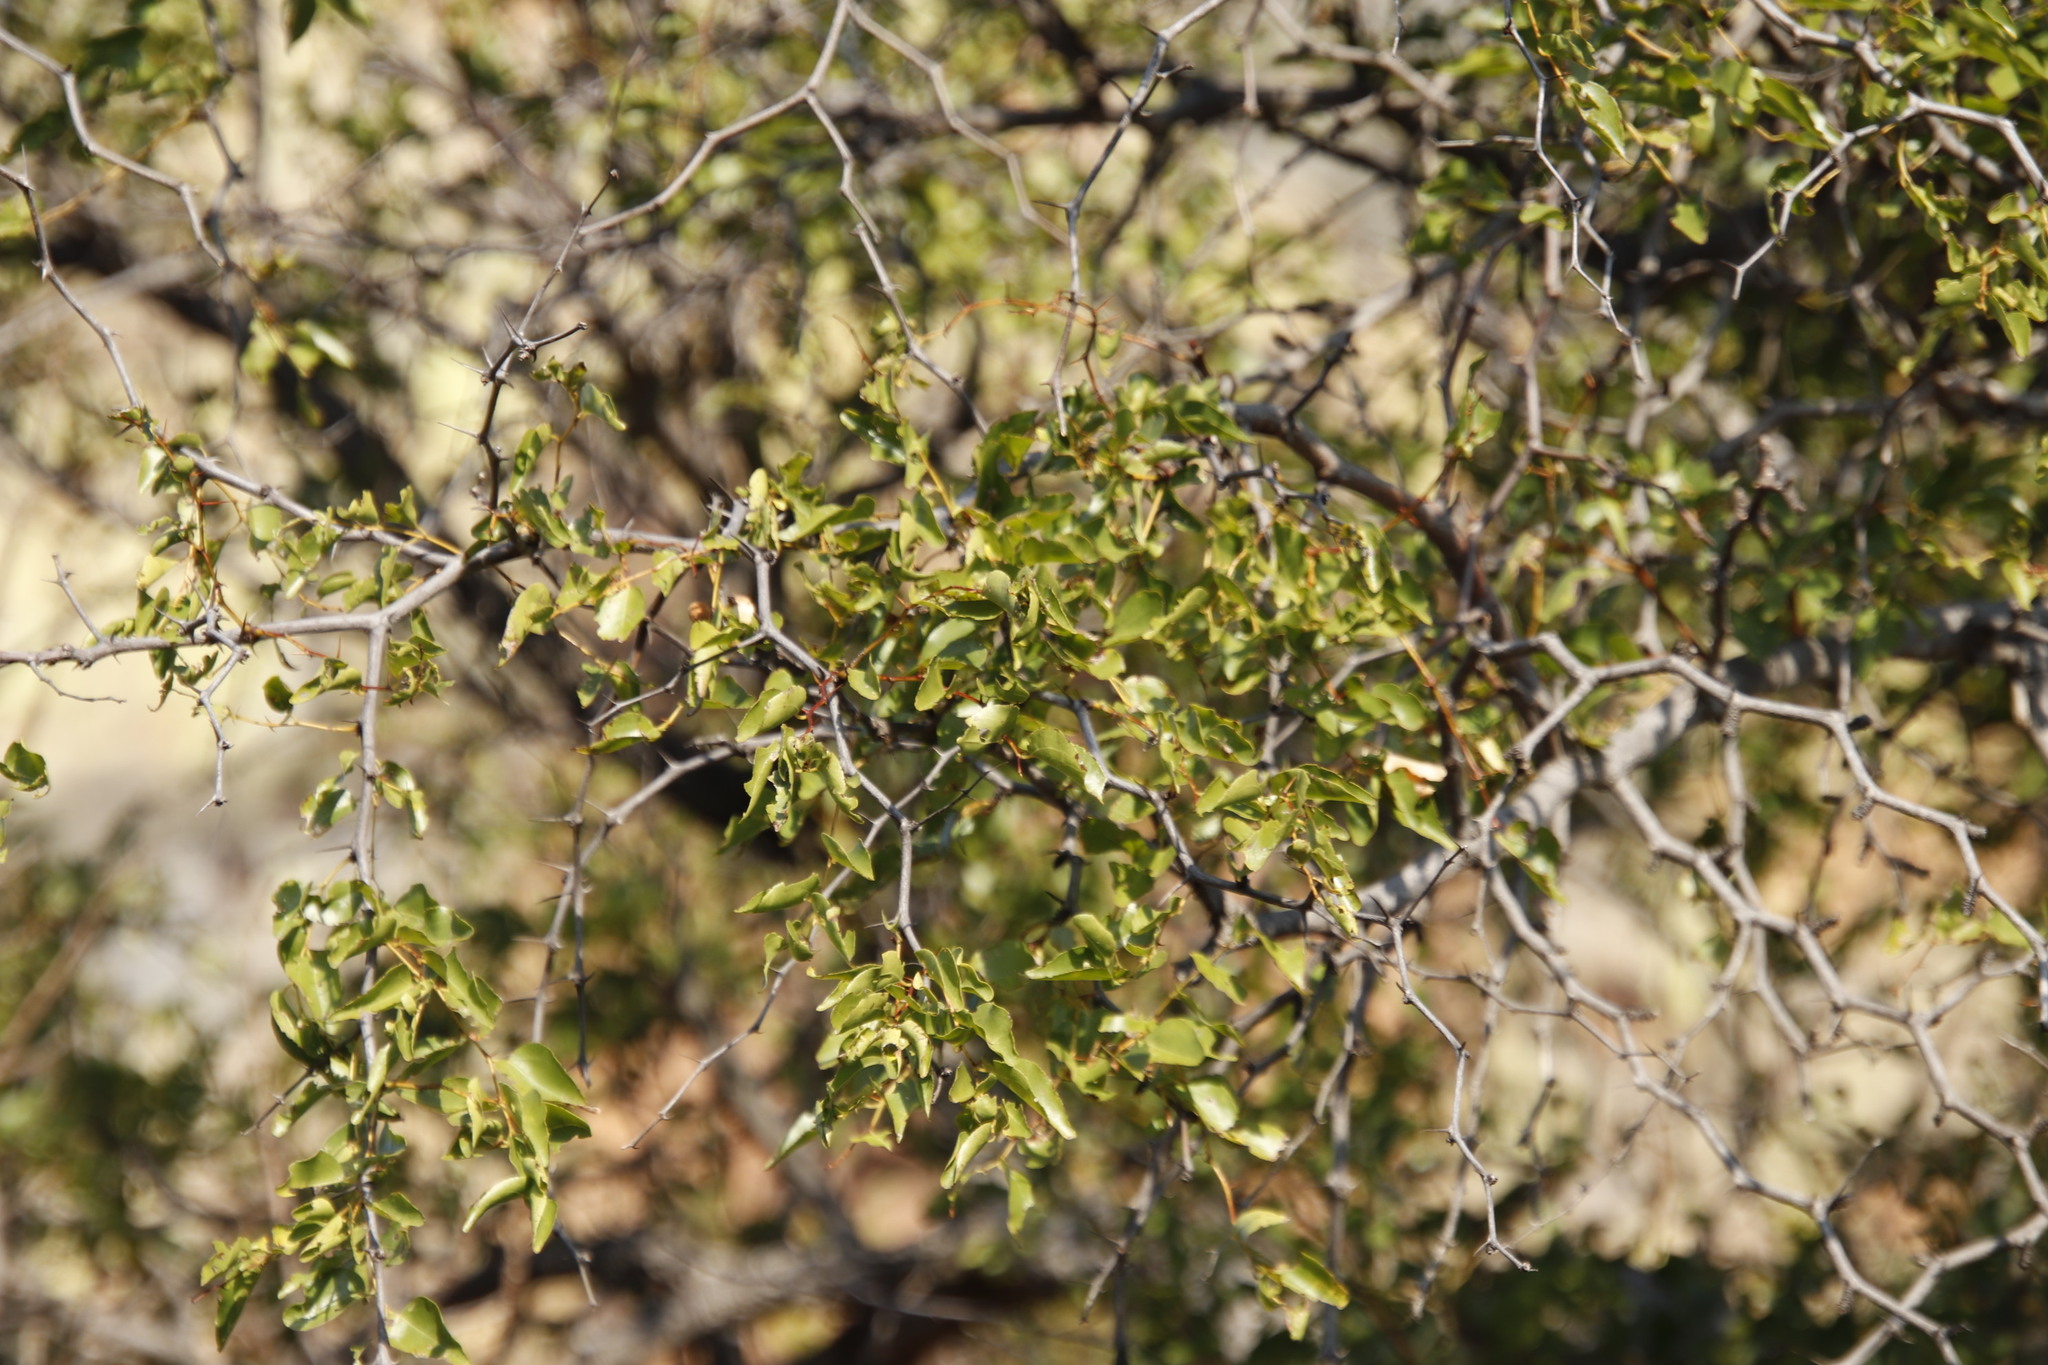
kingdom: Plantae
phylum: Tracheophyta
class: Magnoliopsida
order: Rosales
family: Rhamnaceae
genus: Ziziphus
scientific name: Ziziphus mucronata
